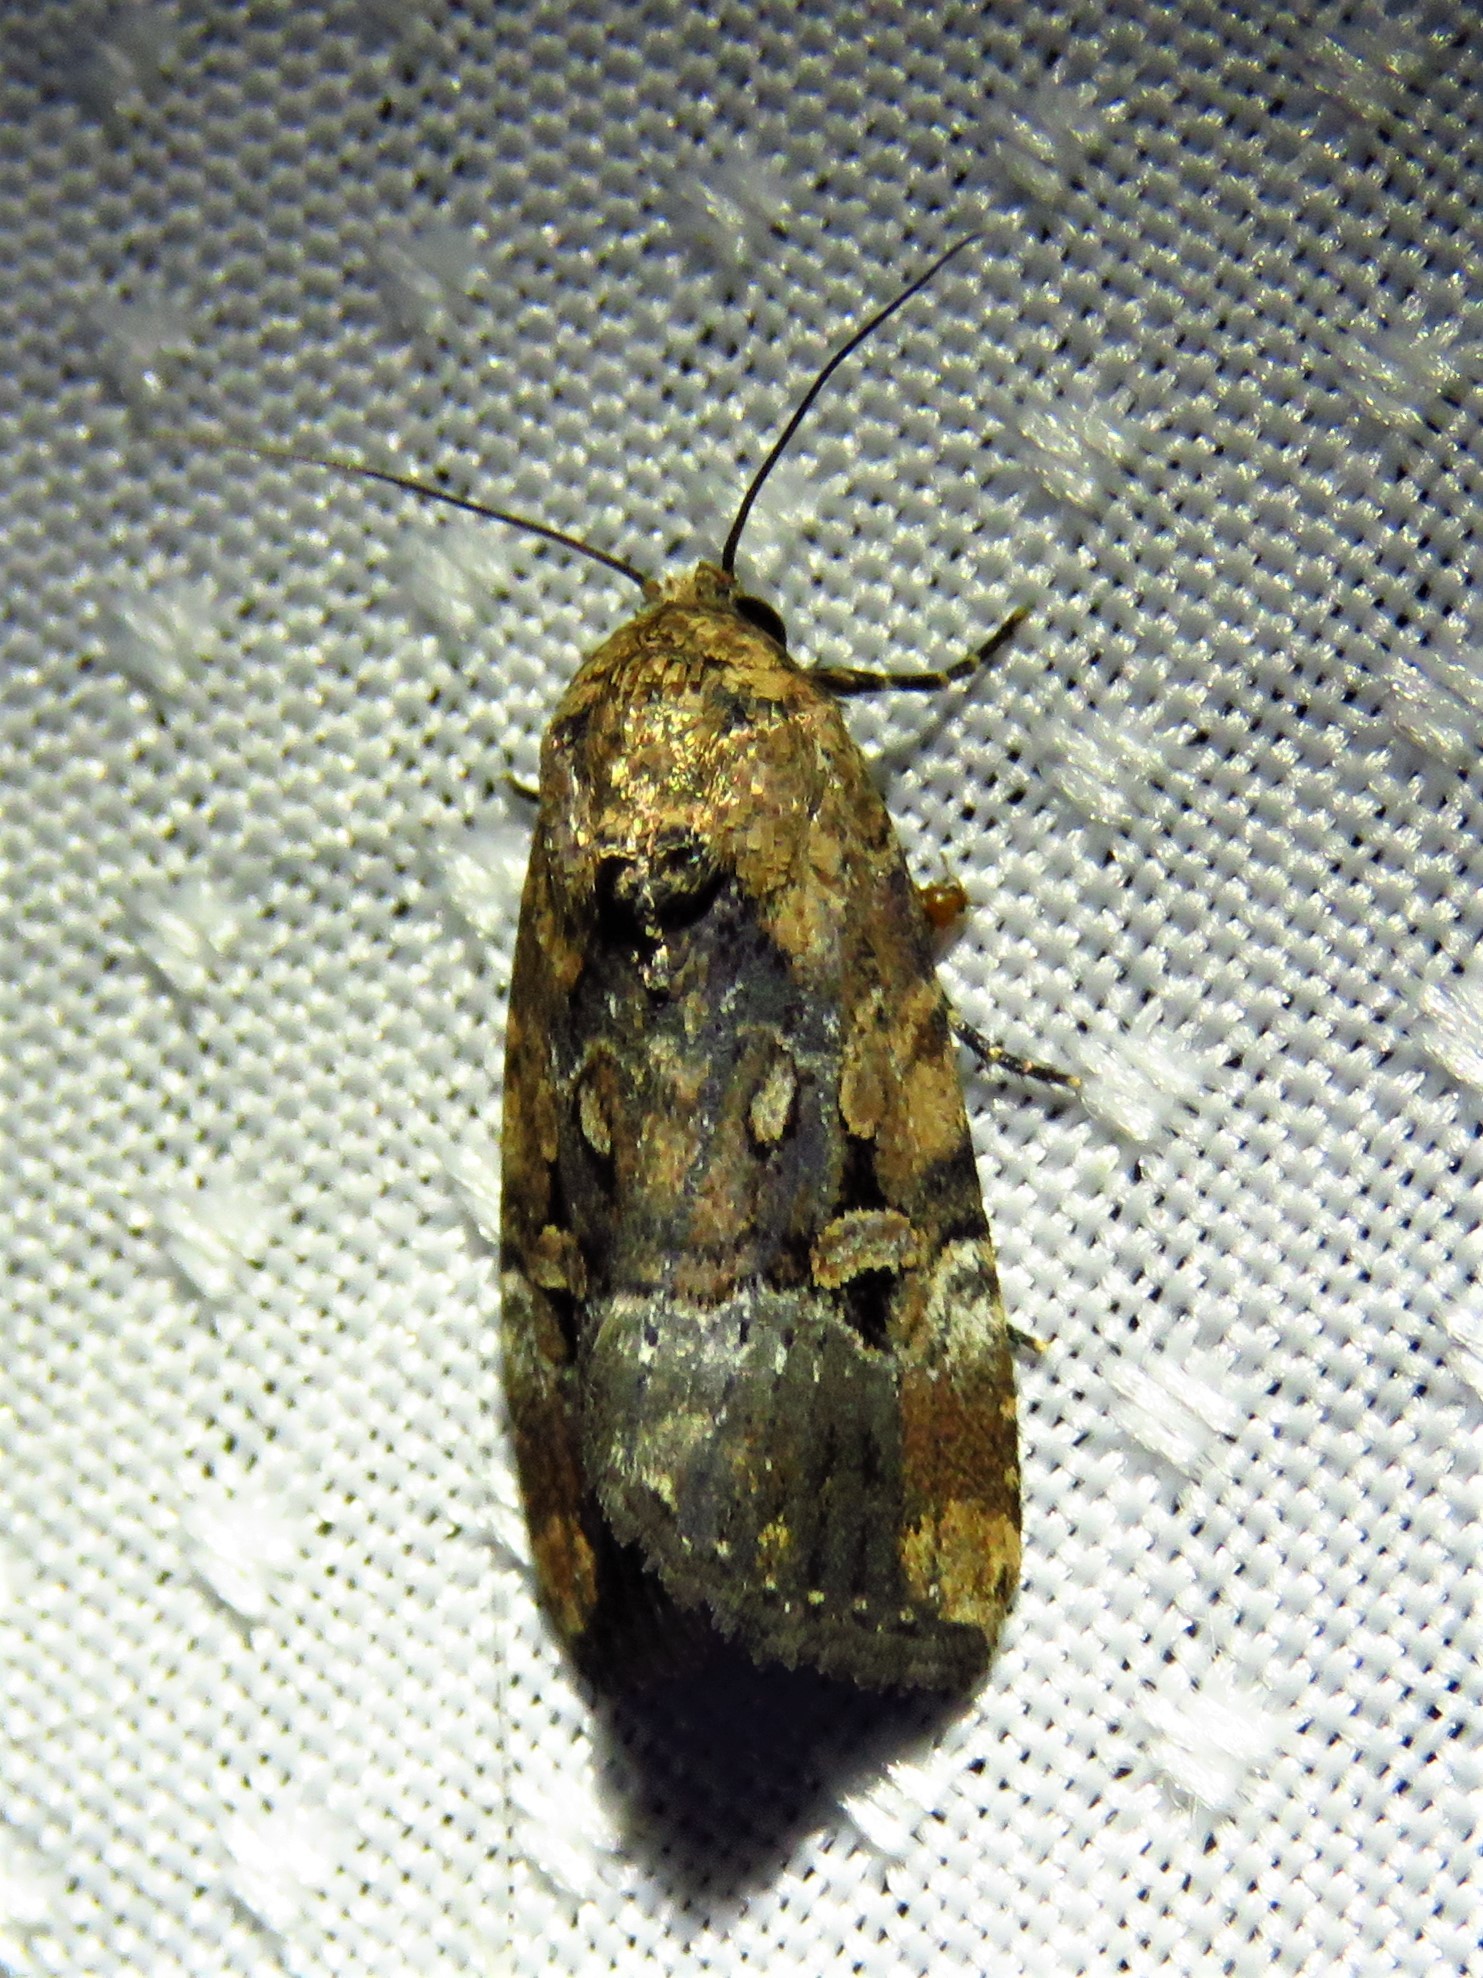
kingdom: Animalia
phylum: Arthropoda
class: Insecta
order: Lepidoptera
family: Noctuidae
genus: Elaphria
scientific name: Elaphria chalcedonia
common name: Chalcedony midget
